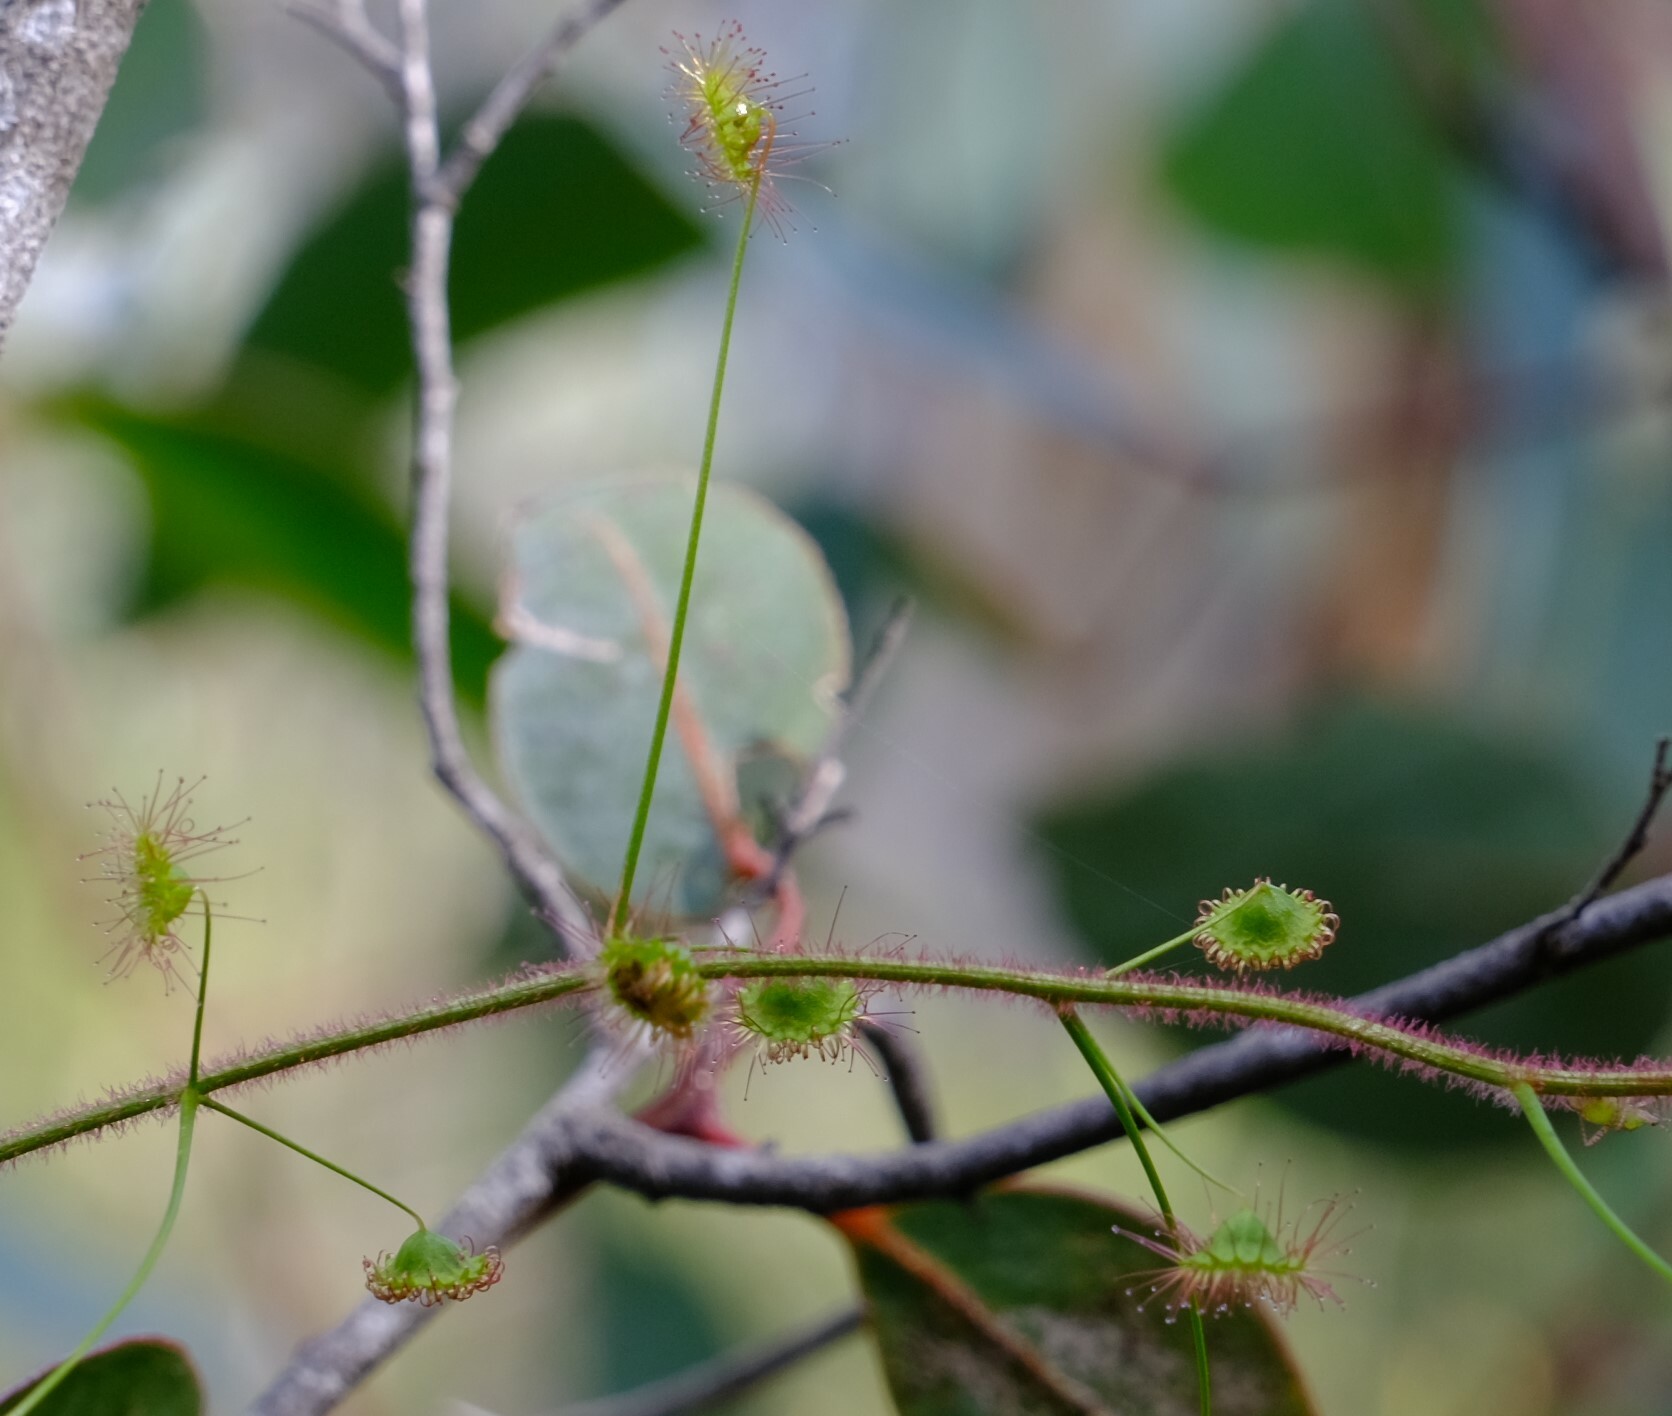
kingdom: Plantae
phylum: Tracheophyta
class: Magnoliopsida
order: Caryophyllales
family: Droseraceae
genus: Drosera
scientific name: Drosera hirsuta
